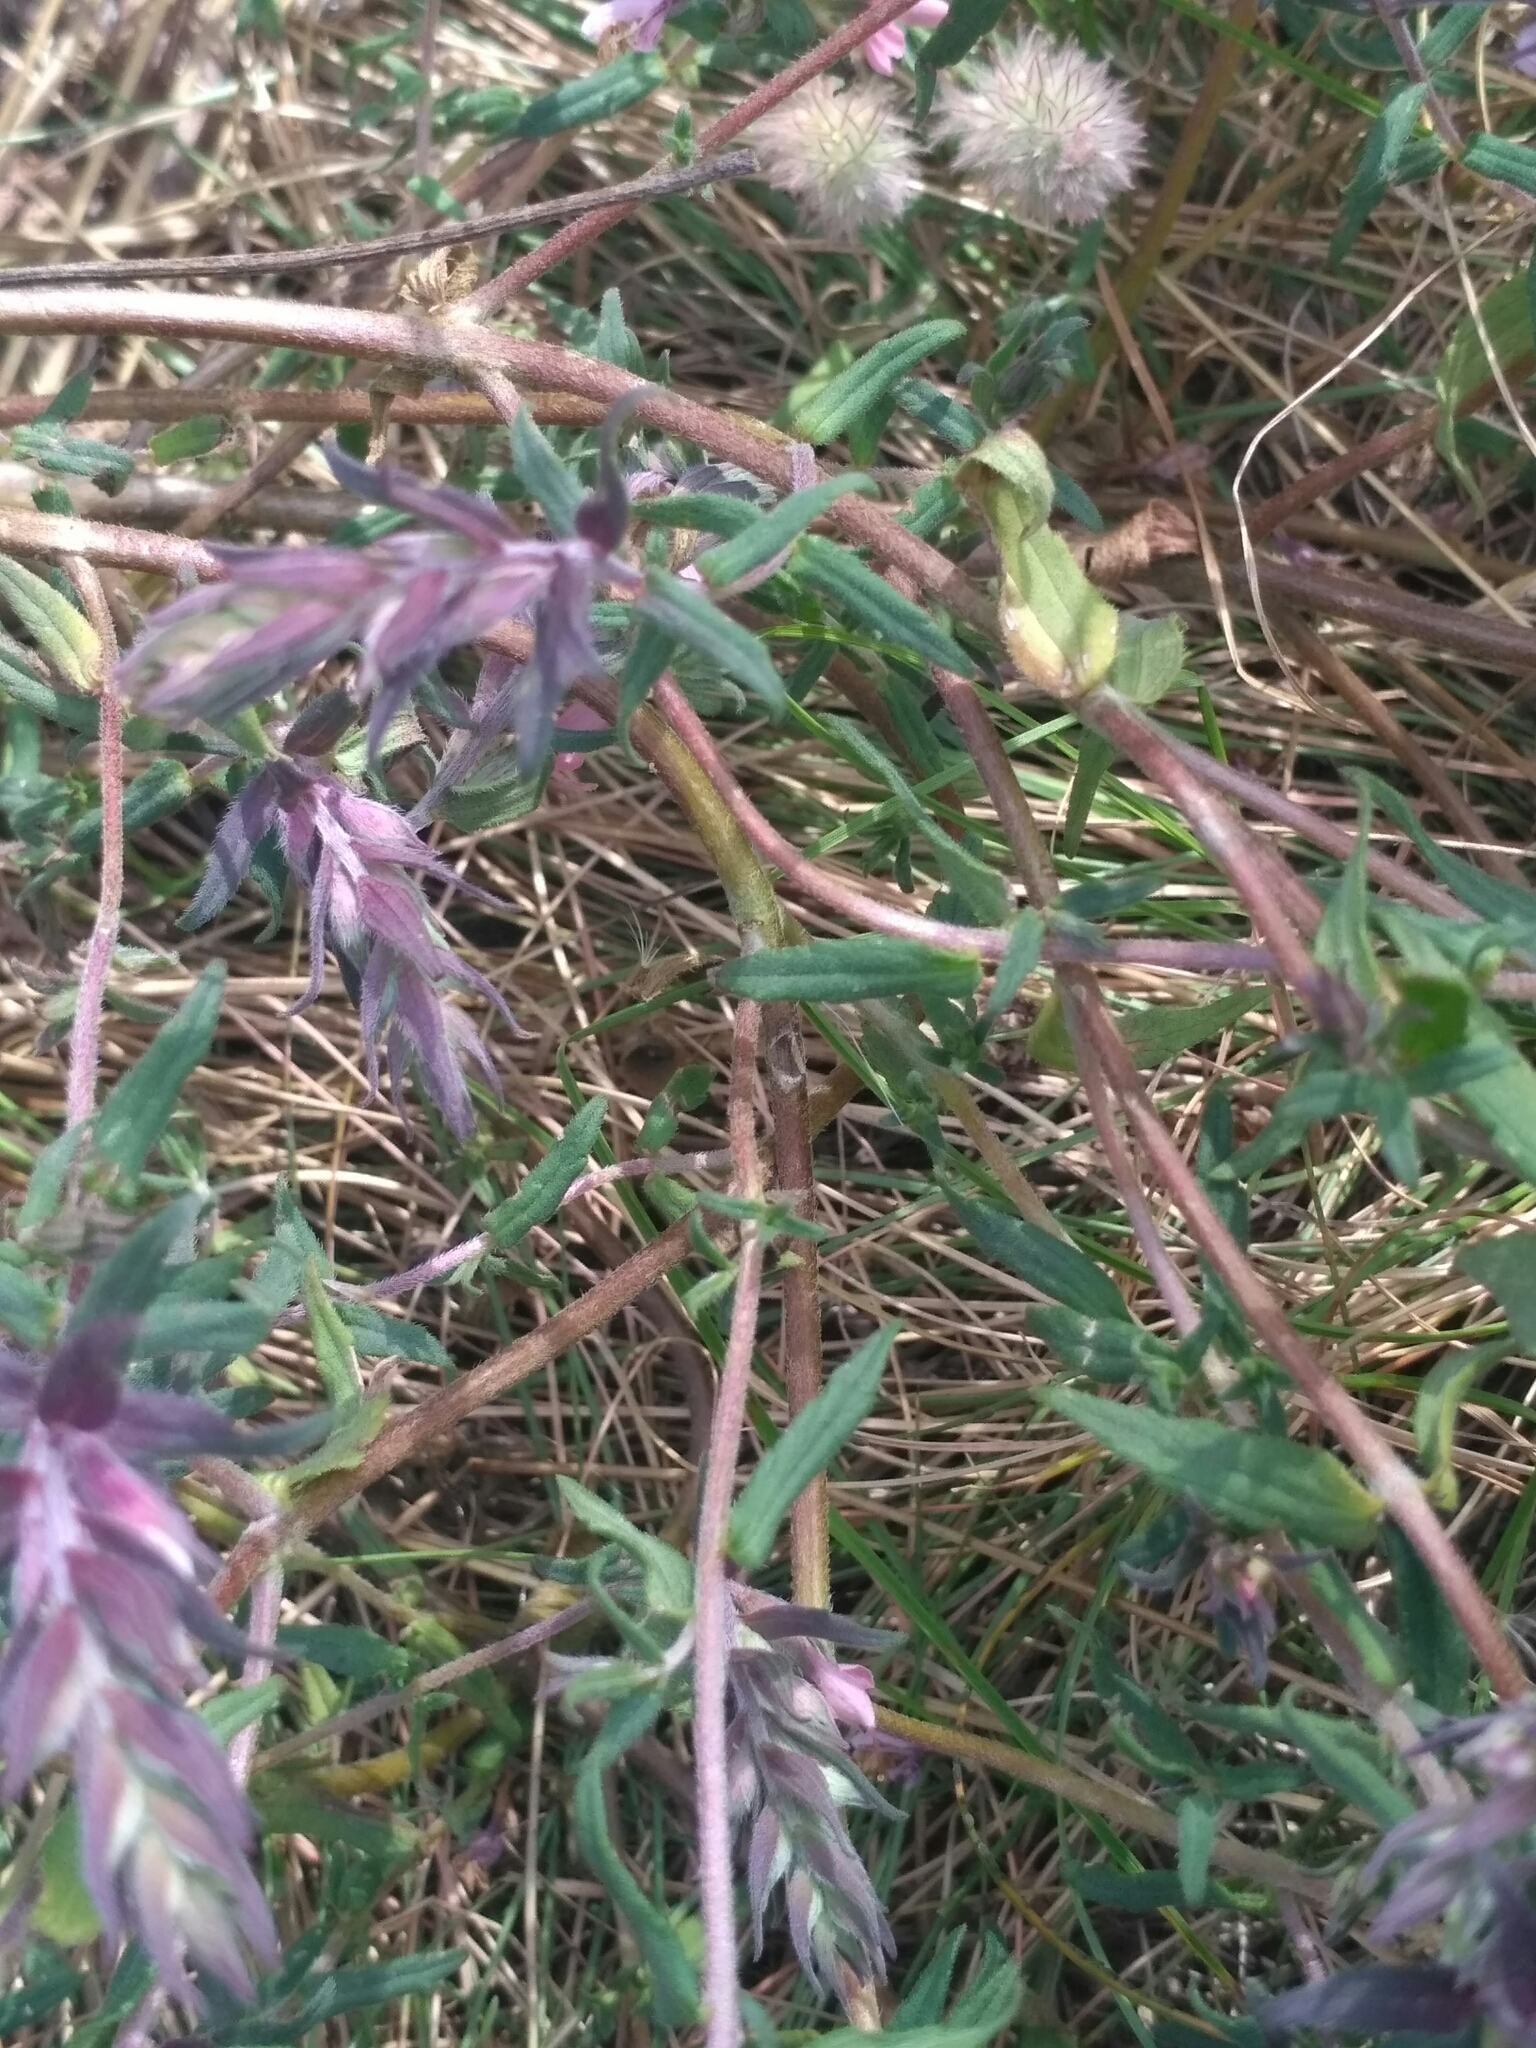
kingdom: Plantae
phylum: Tracheophyta
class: Magnoliopsida
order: Lamiales
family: Orobanchaceae
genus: Odontites
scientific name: Odontites vulgaris
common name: Broomrape
